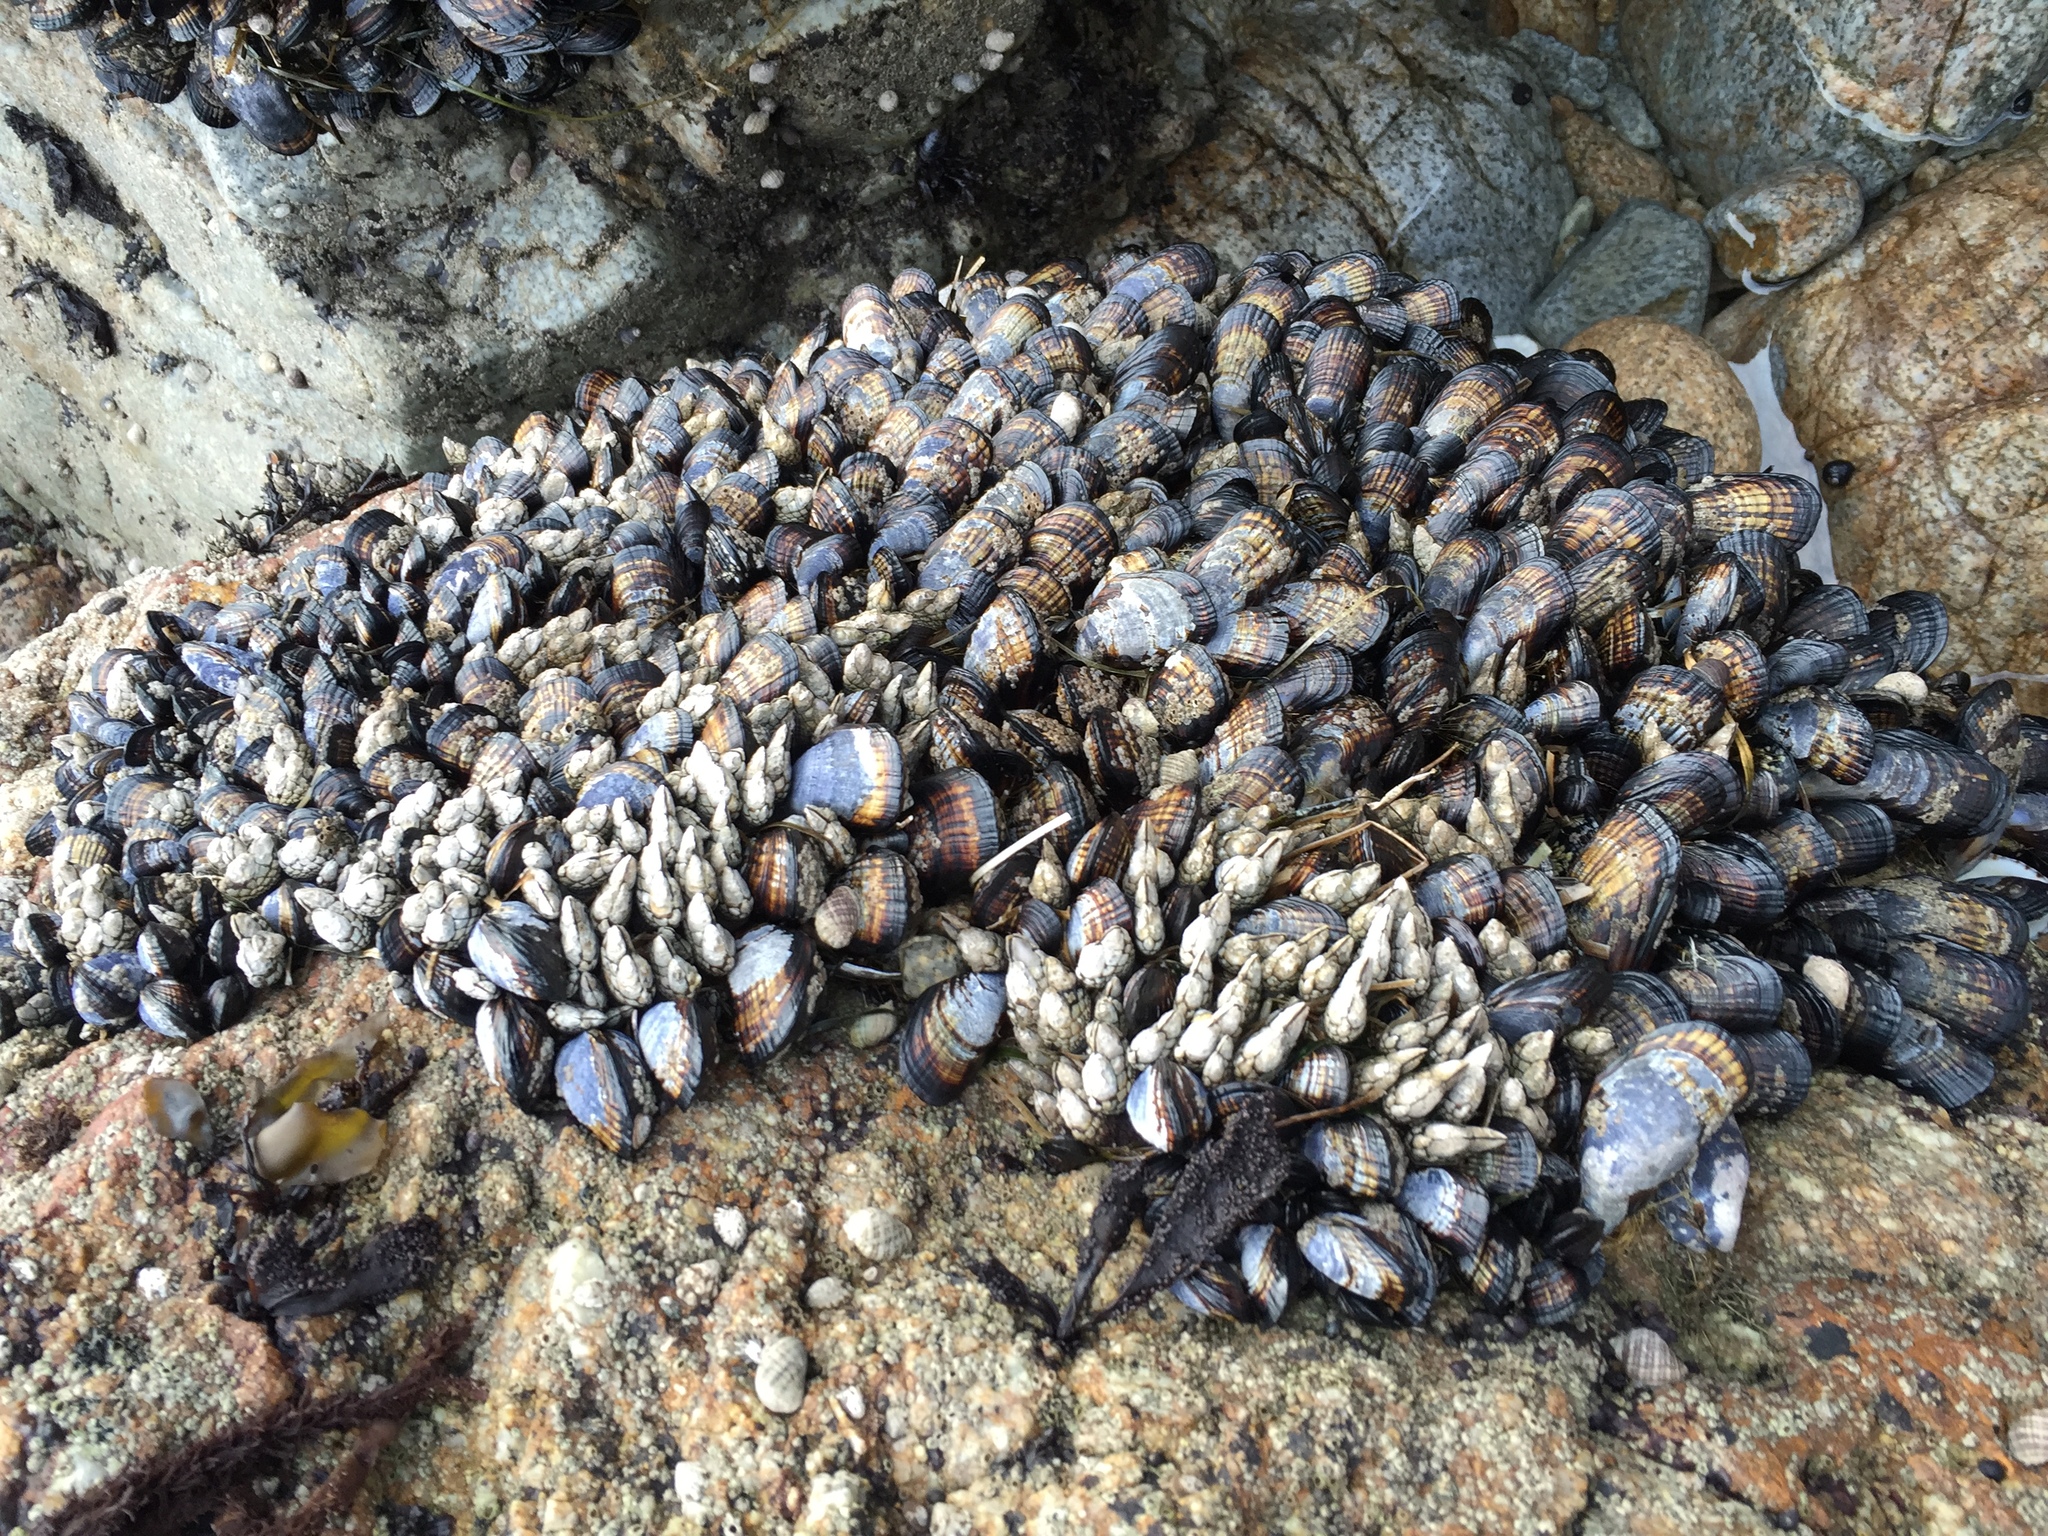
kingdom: Animalia
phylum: Mollusca
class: Bivalvia
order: Mytilida
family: Mytilidae
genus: Mytilus
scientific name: Mytilus californianus
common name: California mussel
